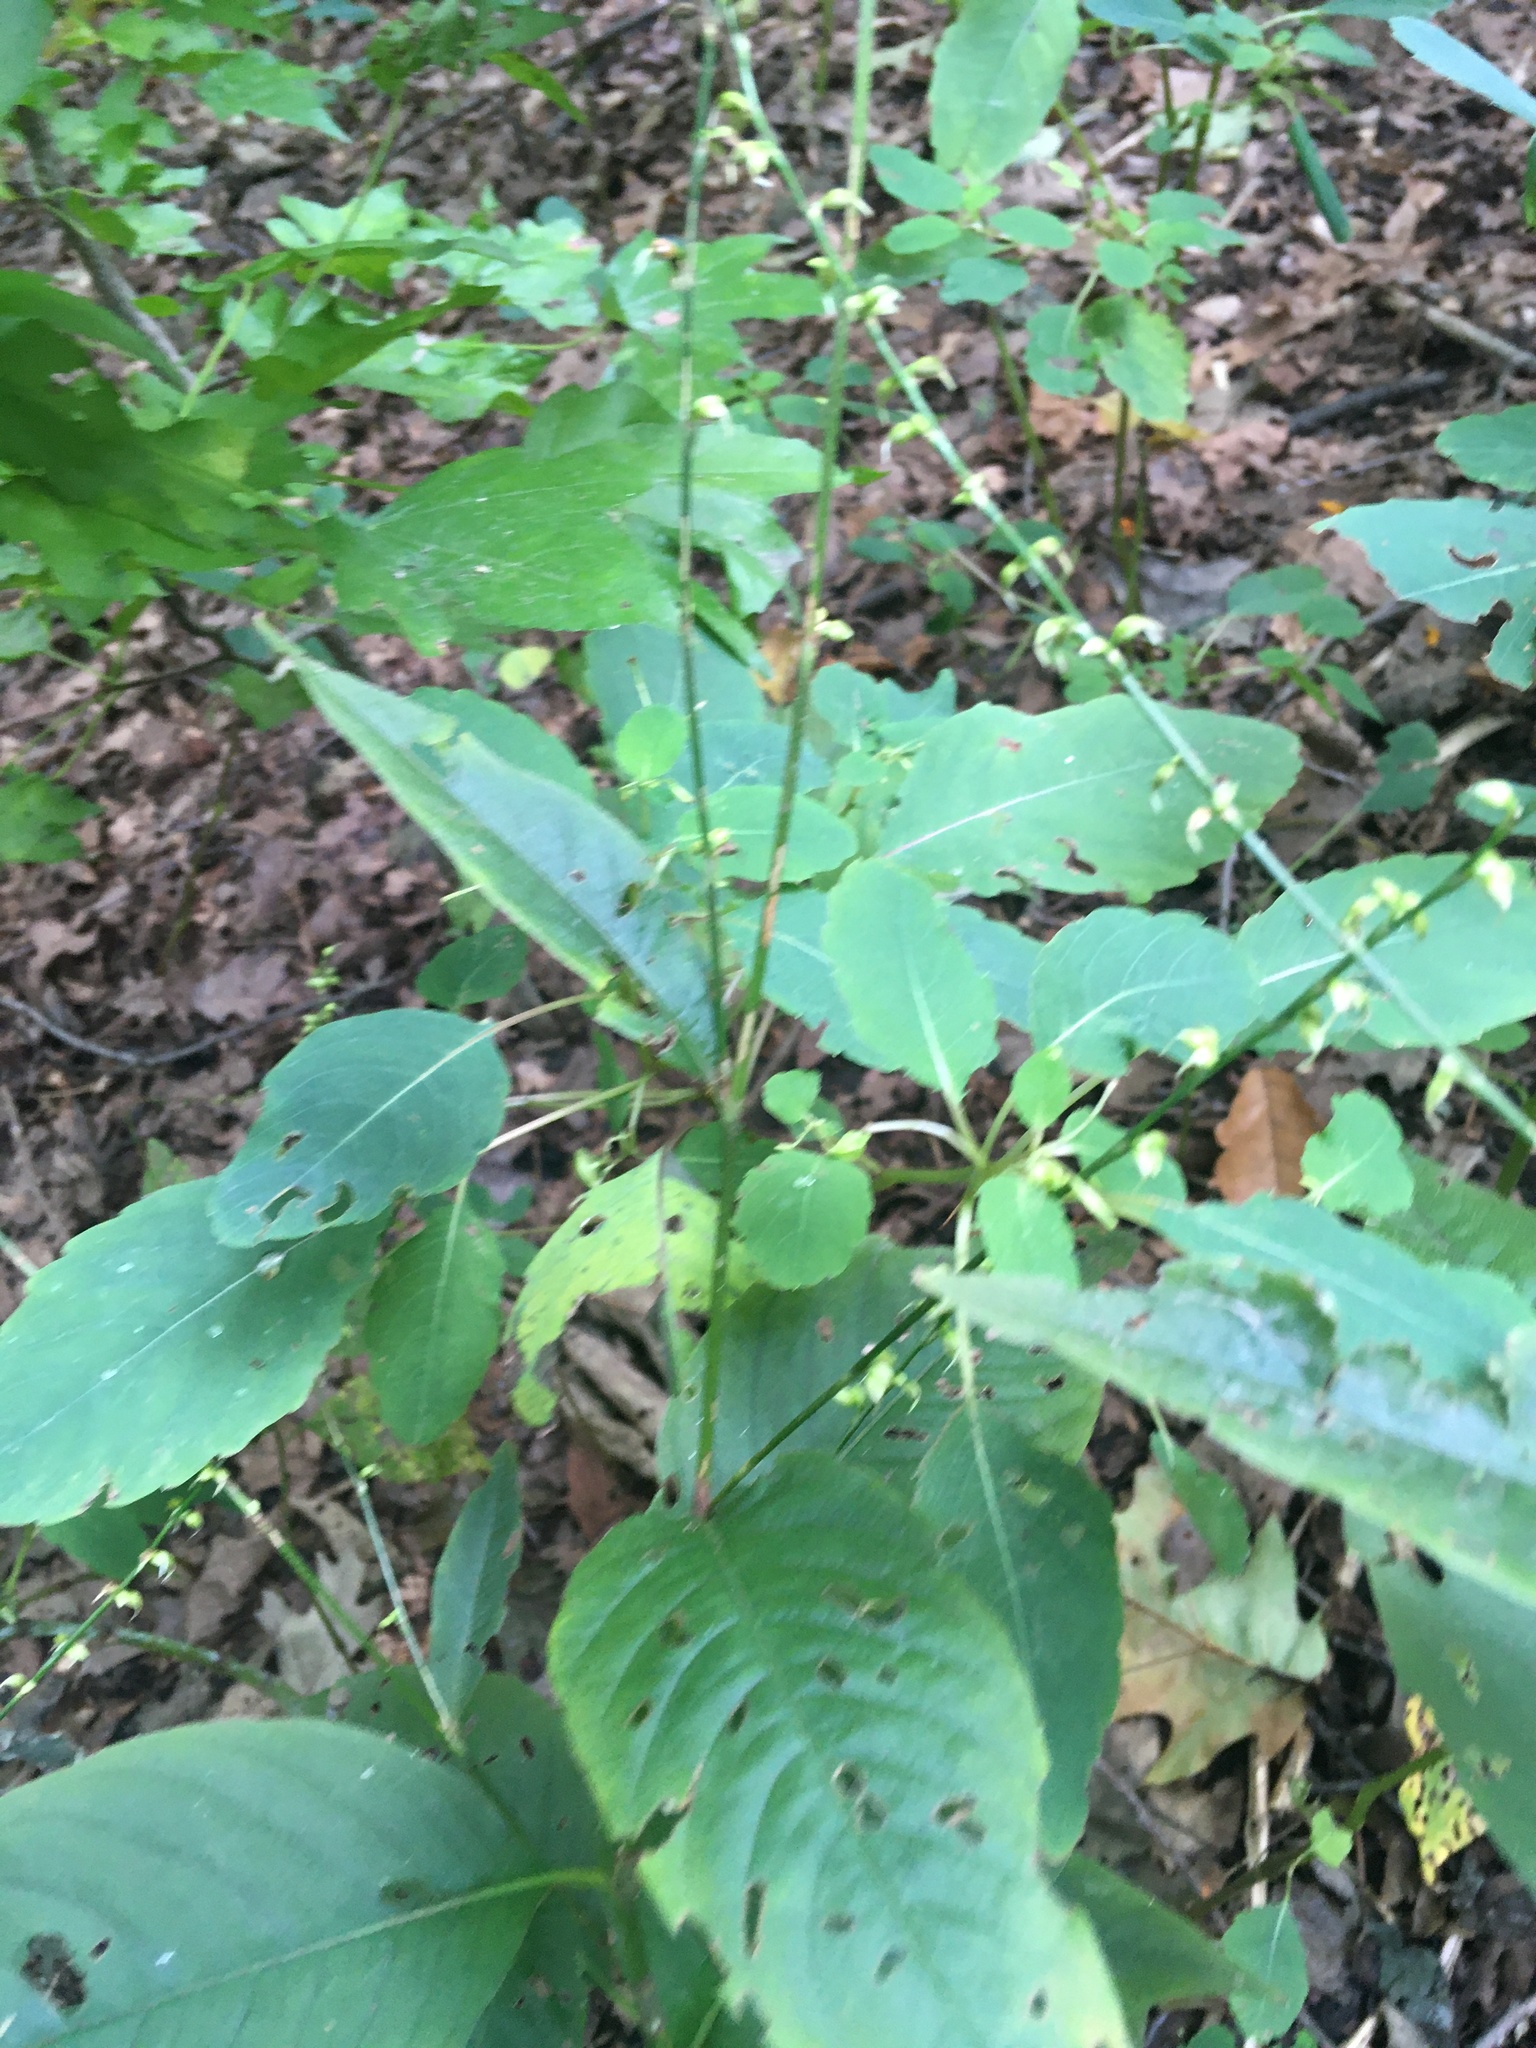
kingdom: Plantae
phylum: Tracheophyta
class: Magnoliopsida
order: Caryophyllales
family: Polygonaceae
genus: Persicaria
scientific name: Persicaria virginiana
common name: Jumpseed
